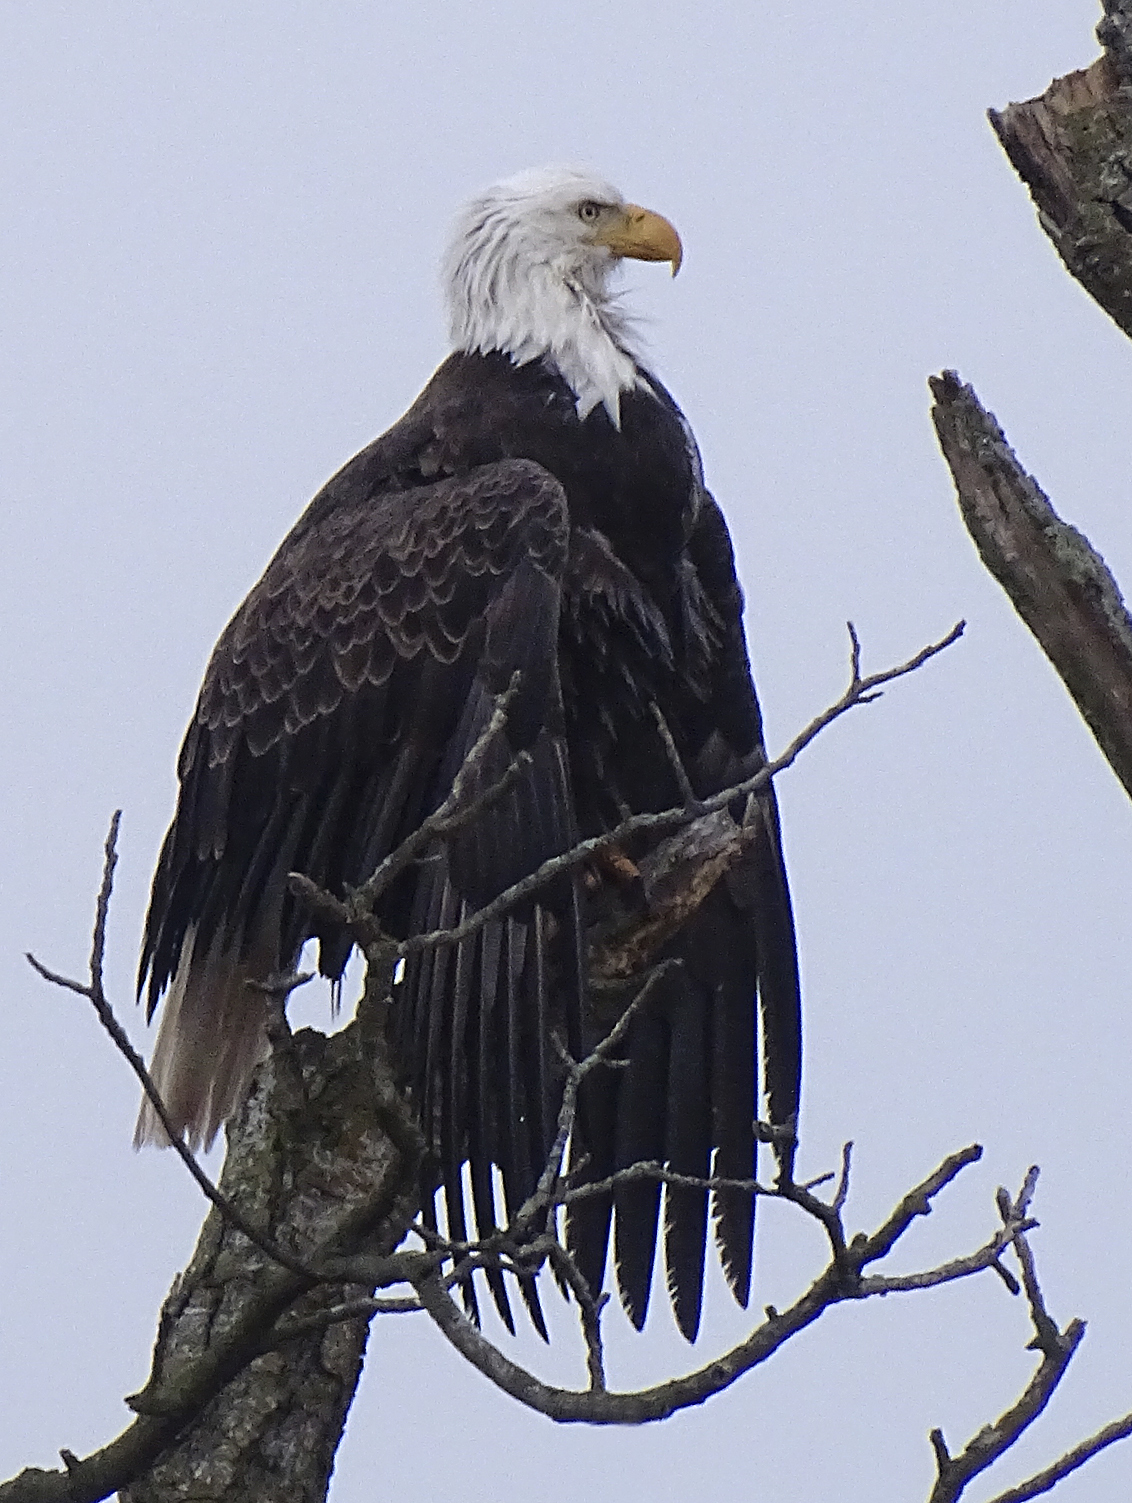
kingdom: Animalia
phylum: Chordata
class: Aves
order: Accipitriformes
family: Accipitridae
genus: Haliaeetus
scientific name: Haliaeetus leucocephalus
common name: Bald eagle
